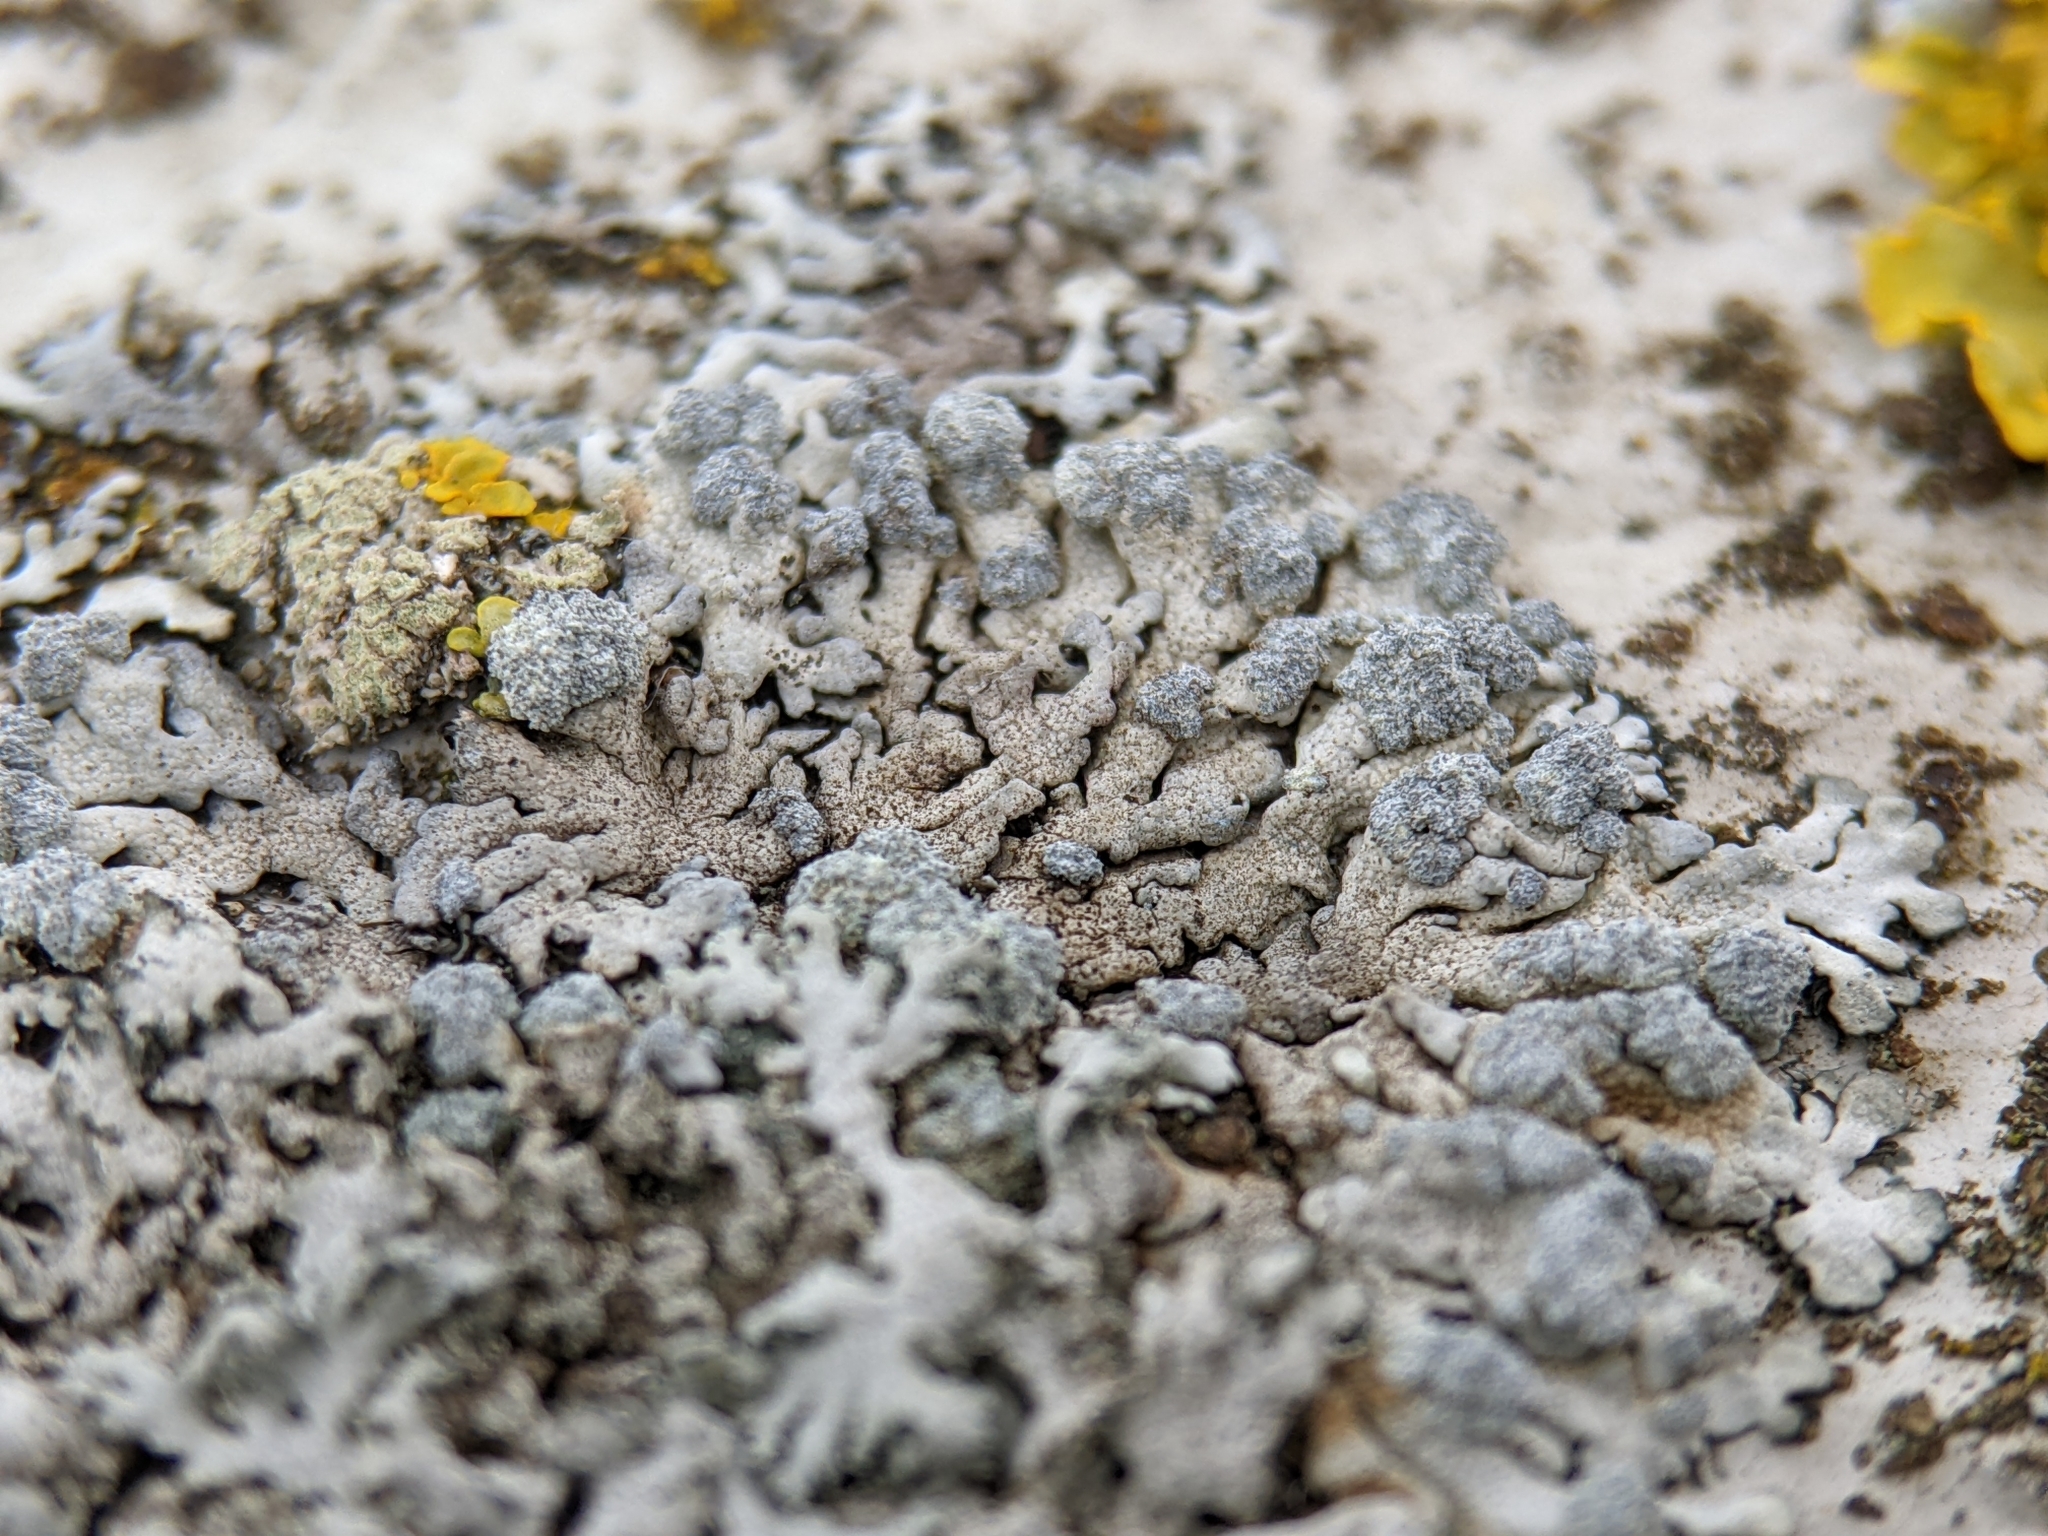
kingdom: Fungi
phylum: Ascomycota
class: Lecanoromycetes
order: Caliciales
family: Physciaceae
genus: Physcia
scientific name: Physcia caesia
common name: Blue-gray rosette lichen
